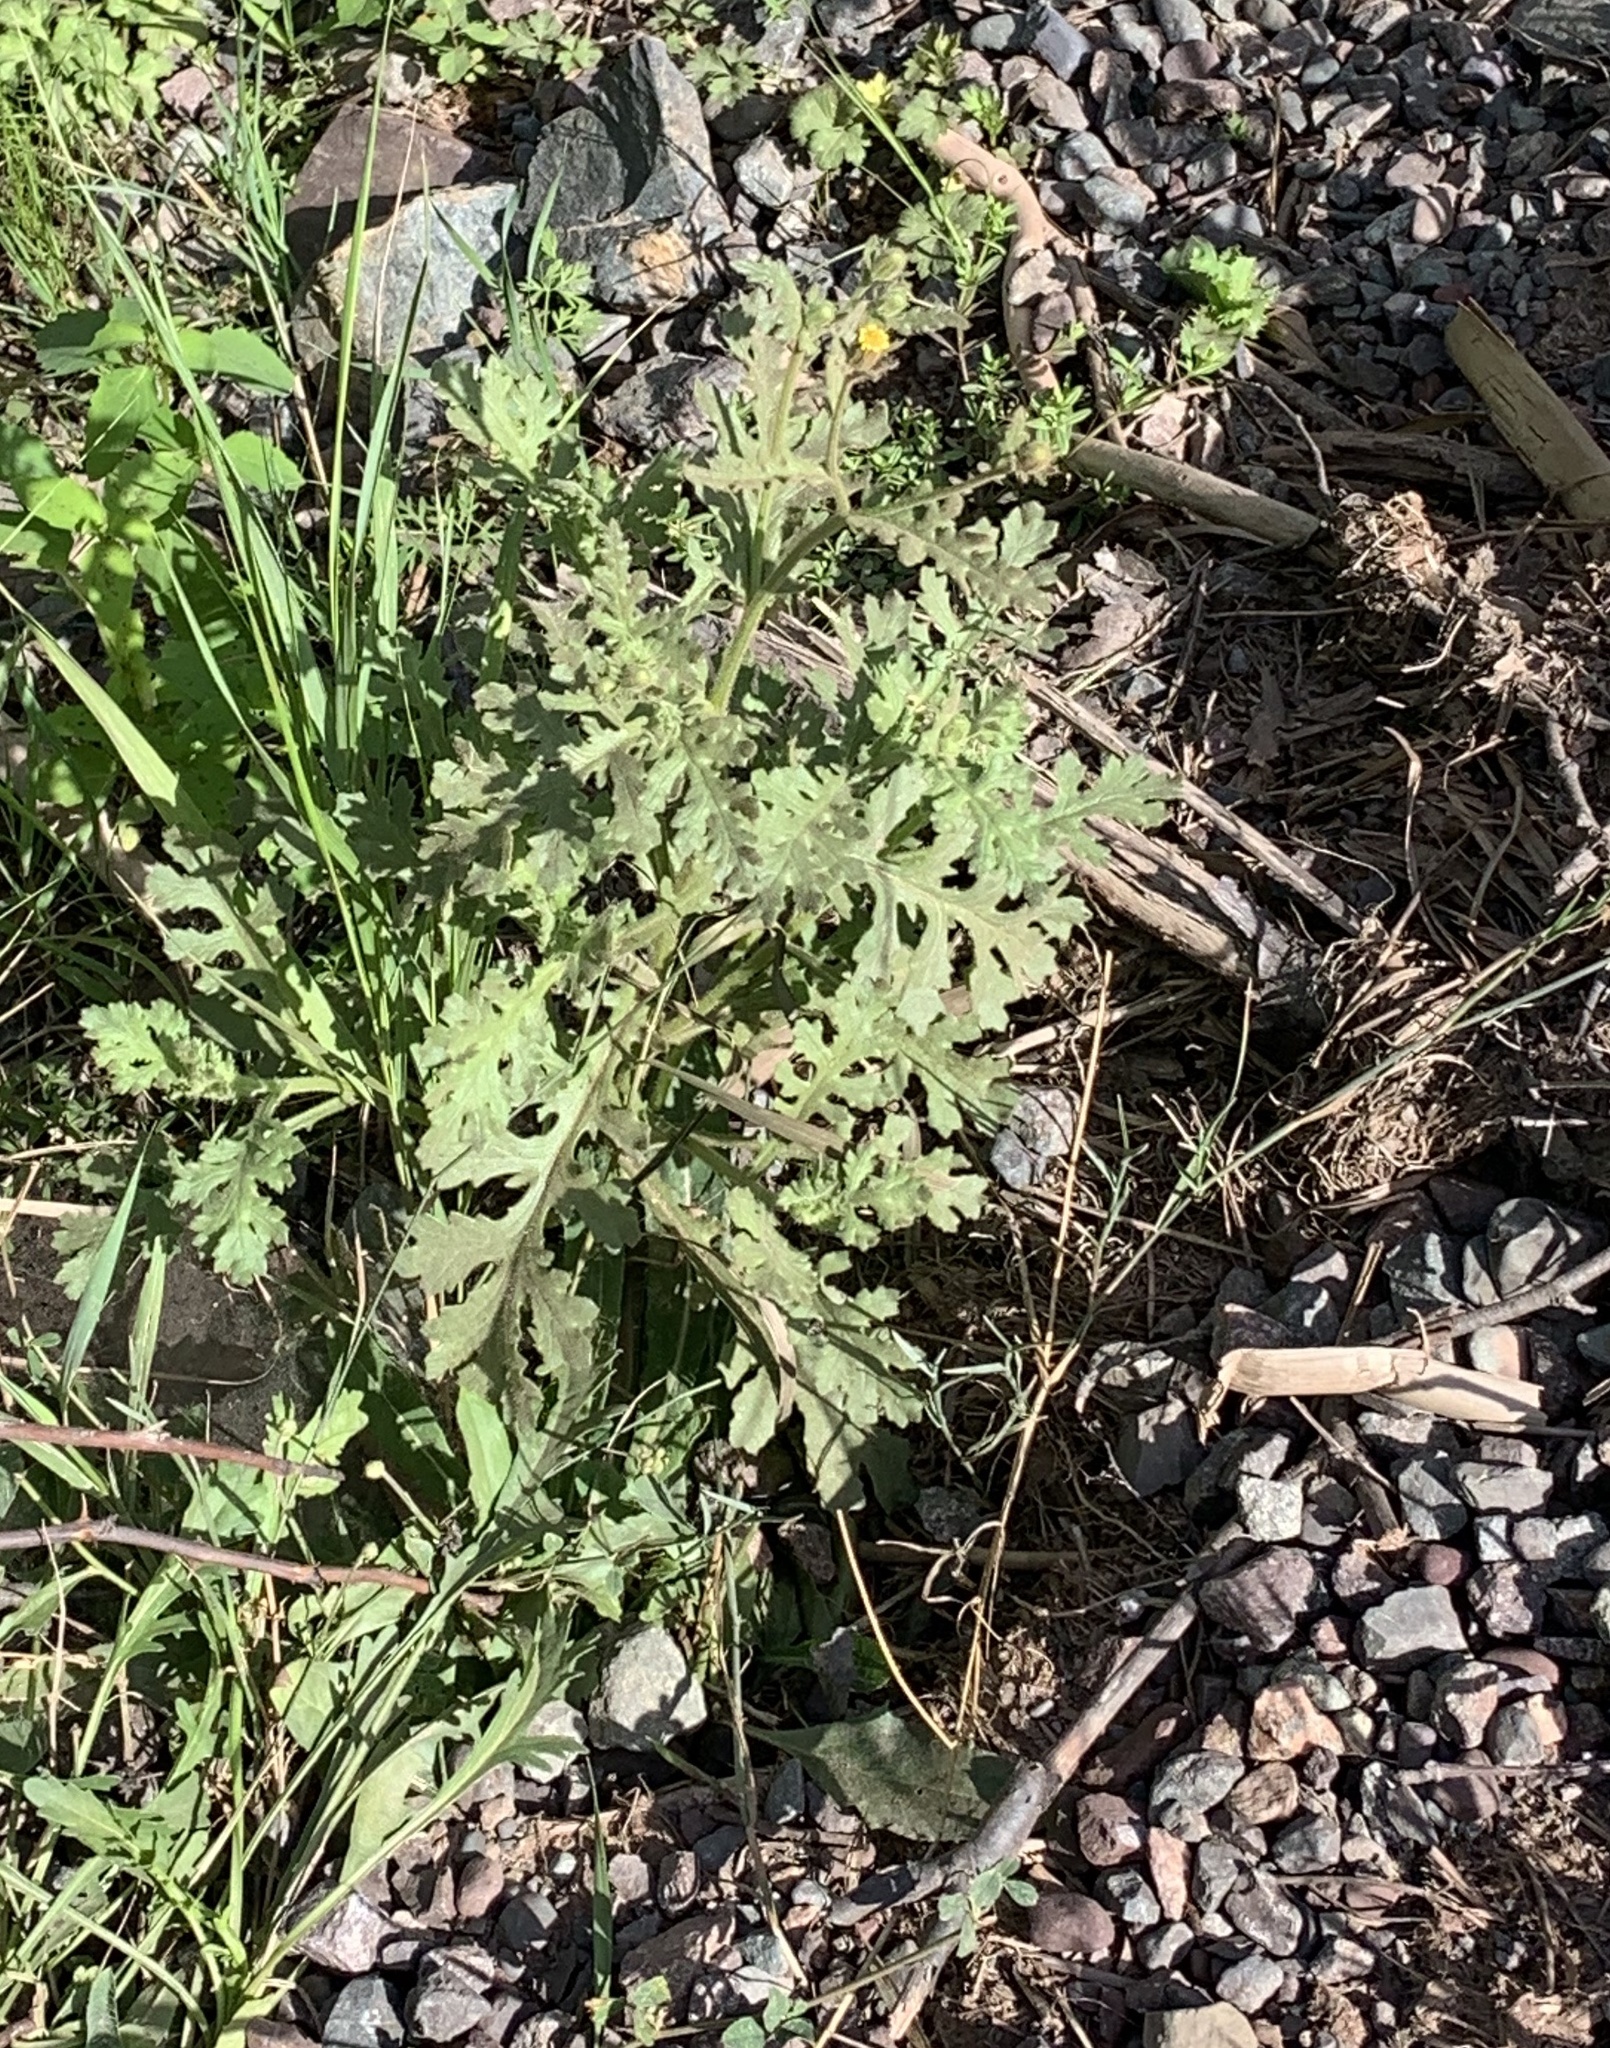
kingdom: Plantae
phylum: Tracheophyta
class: Magnoliopsida
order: Asterales
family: Asteraceae
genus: Senecio
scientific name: Senecio viscosus
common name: Sticky groundsel
